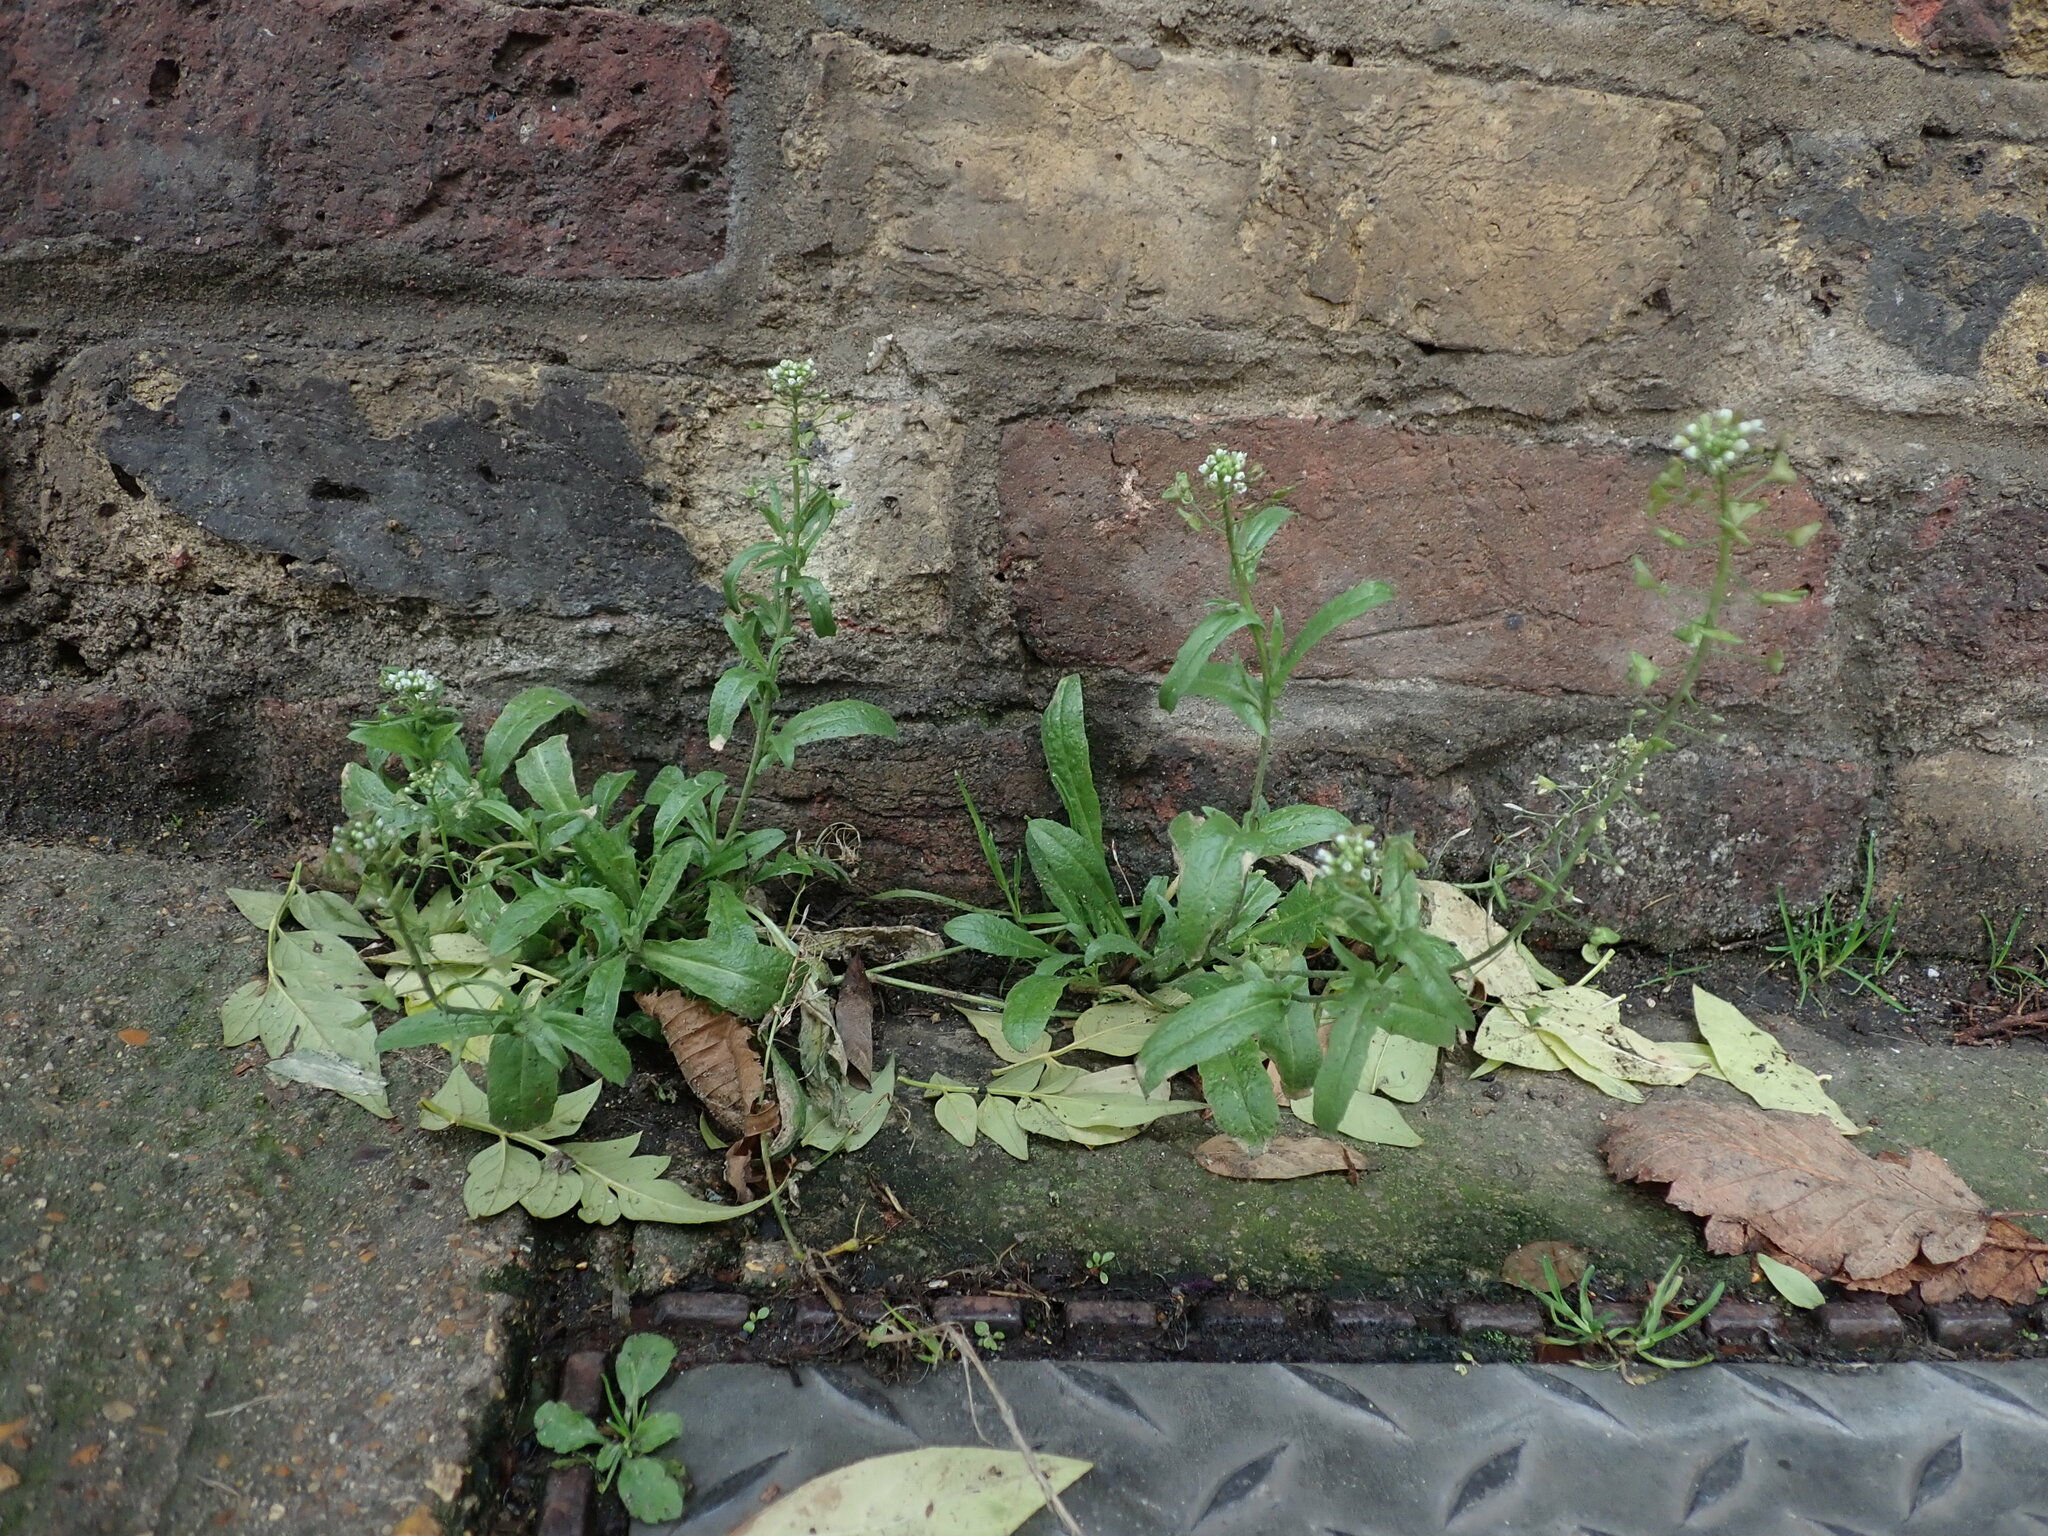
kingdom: Plantae
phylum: Tracheophyta
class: Magnoliopsida
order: Brassicales
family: Brassicaceae
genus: Capsella
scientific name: Capsella bursa-pastoris
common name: Shepherd's purse
